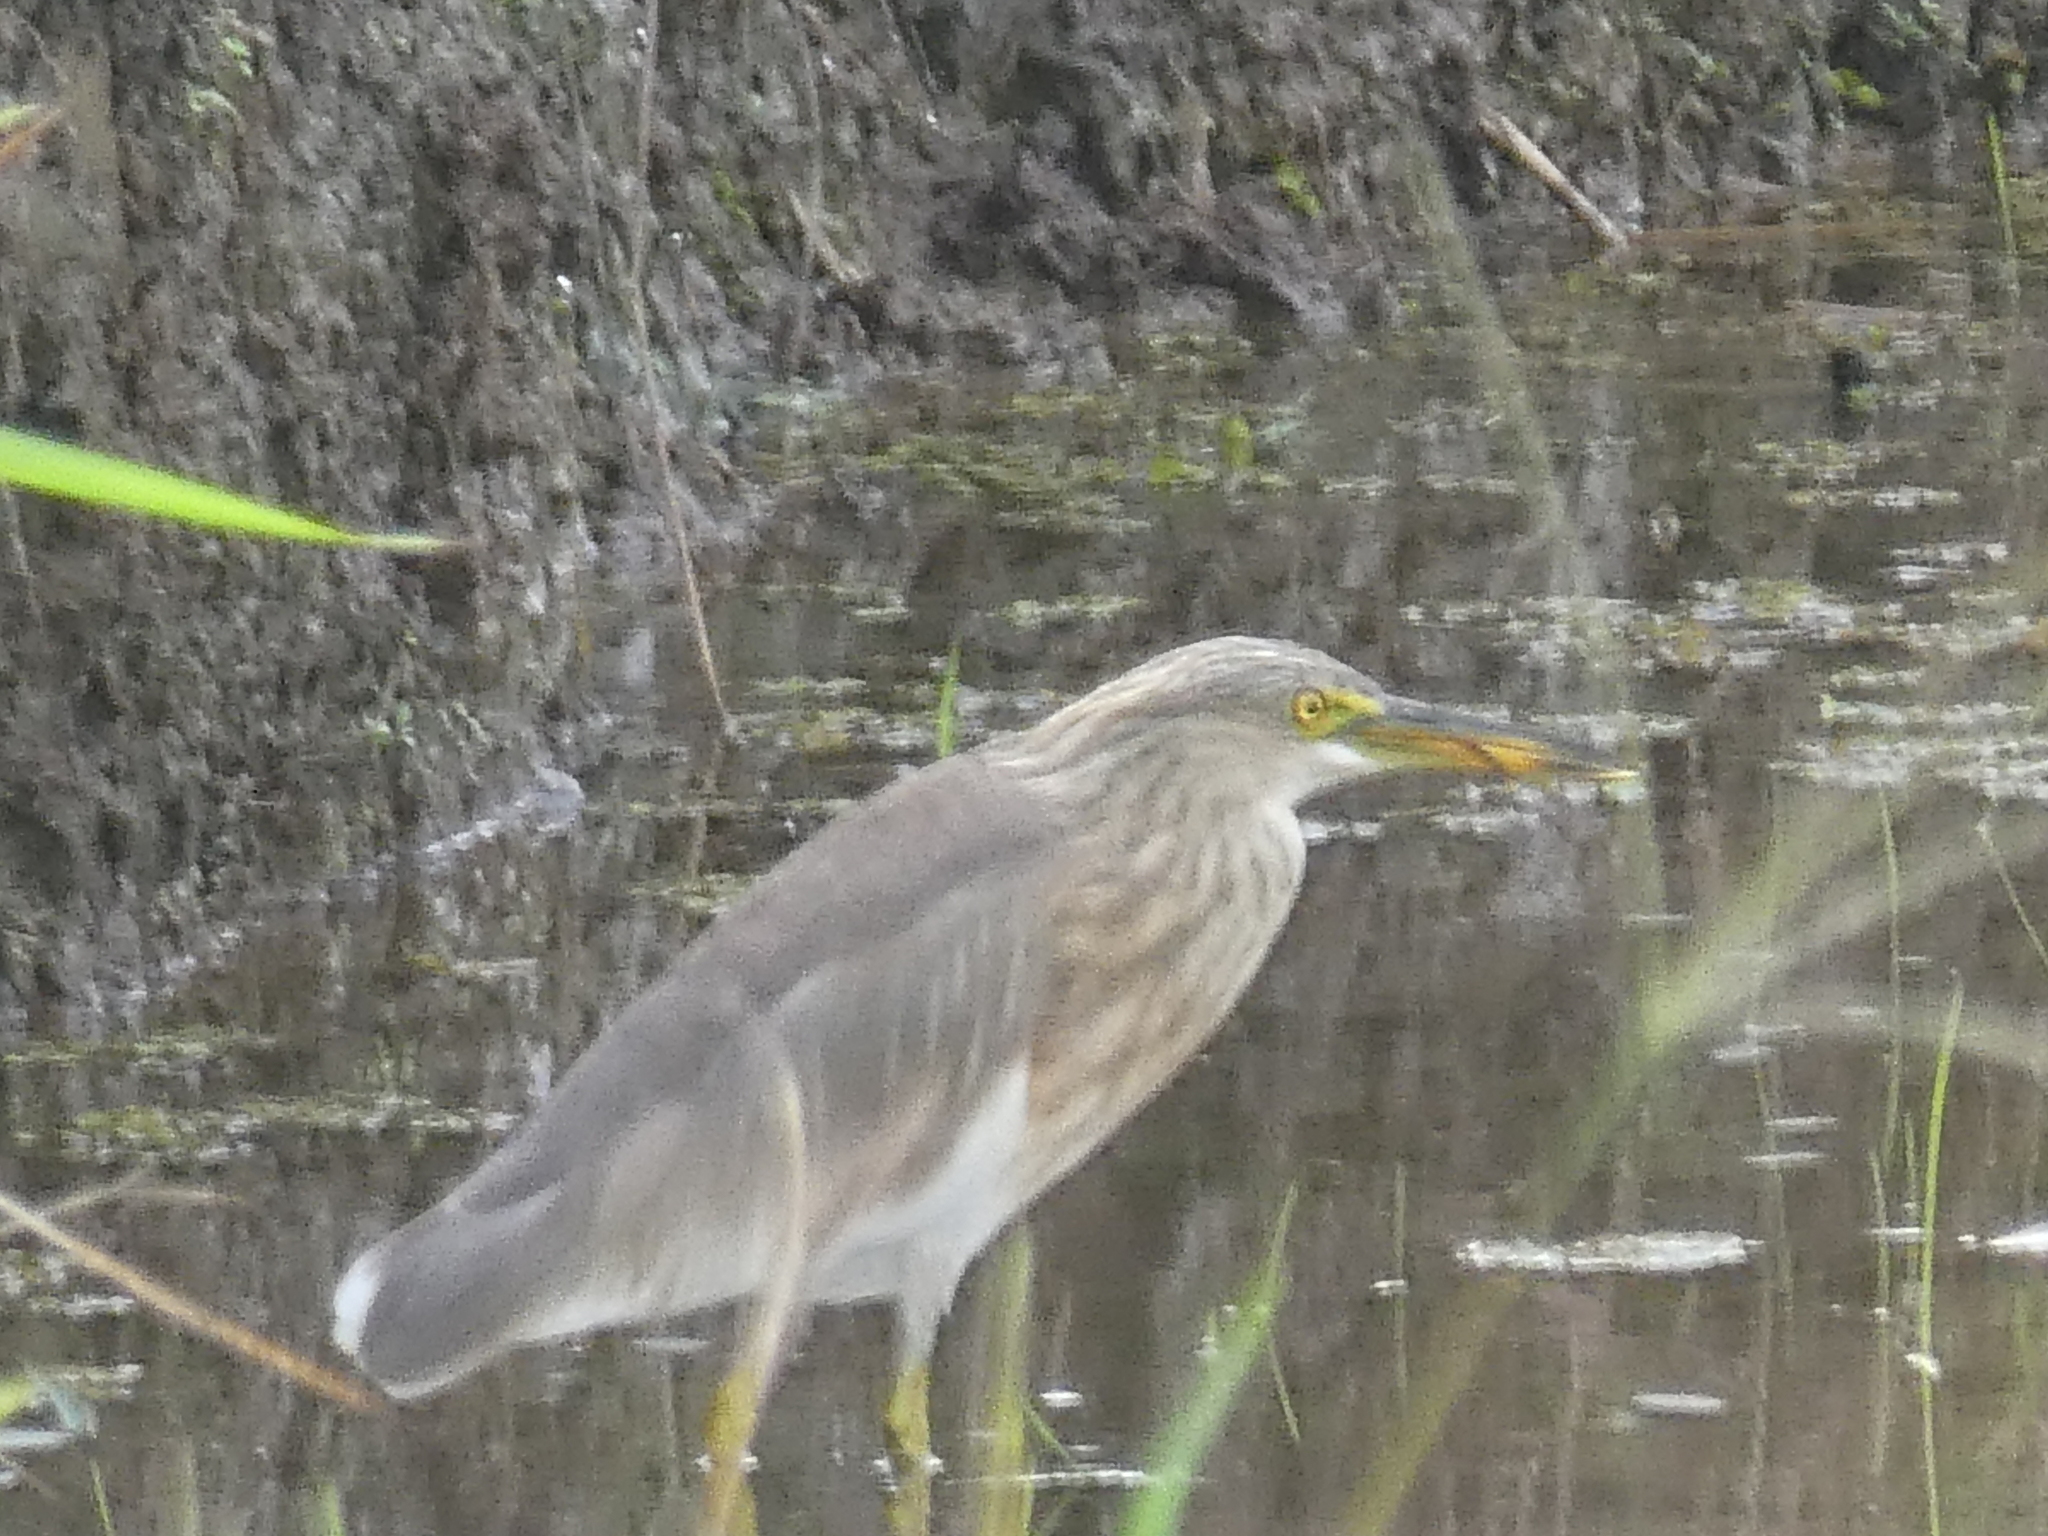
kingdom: Animalia
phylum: Chordata
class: Aves
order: Pelecaniformes
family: Ardeidae
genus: Ardeola
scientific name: Ardeola speciosa
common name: Javan pond heron
